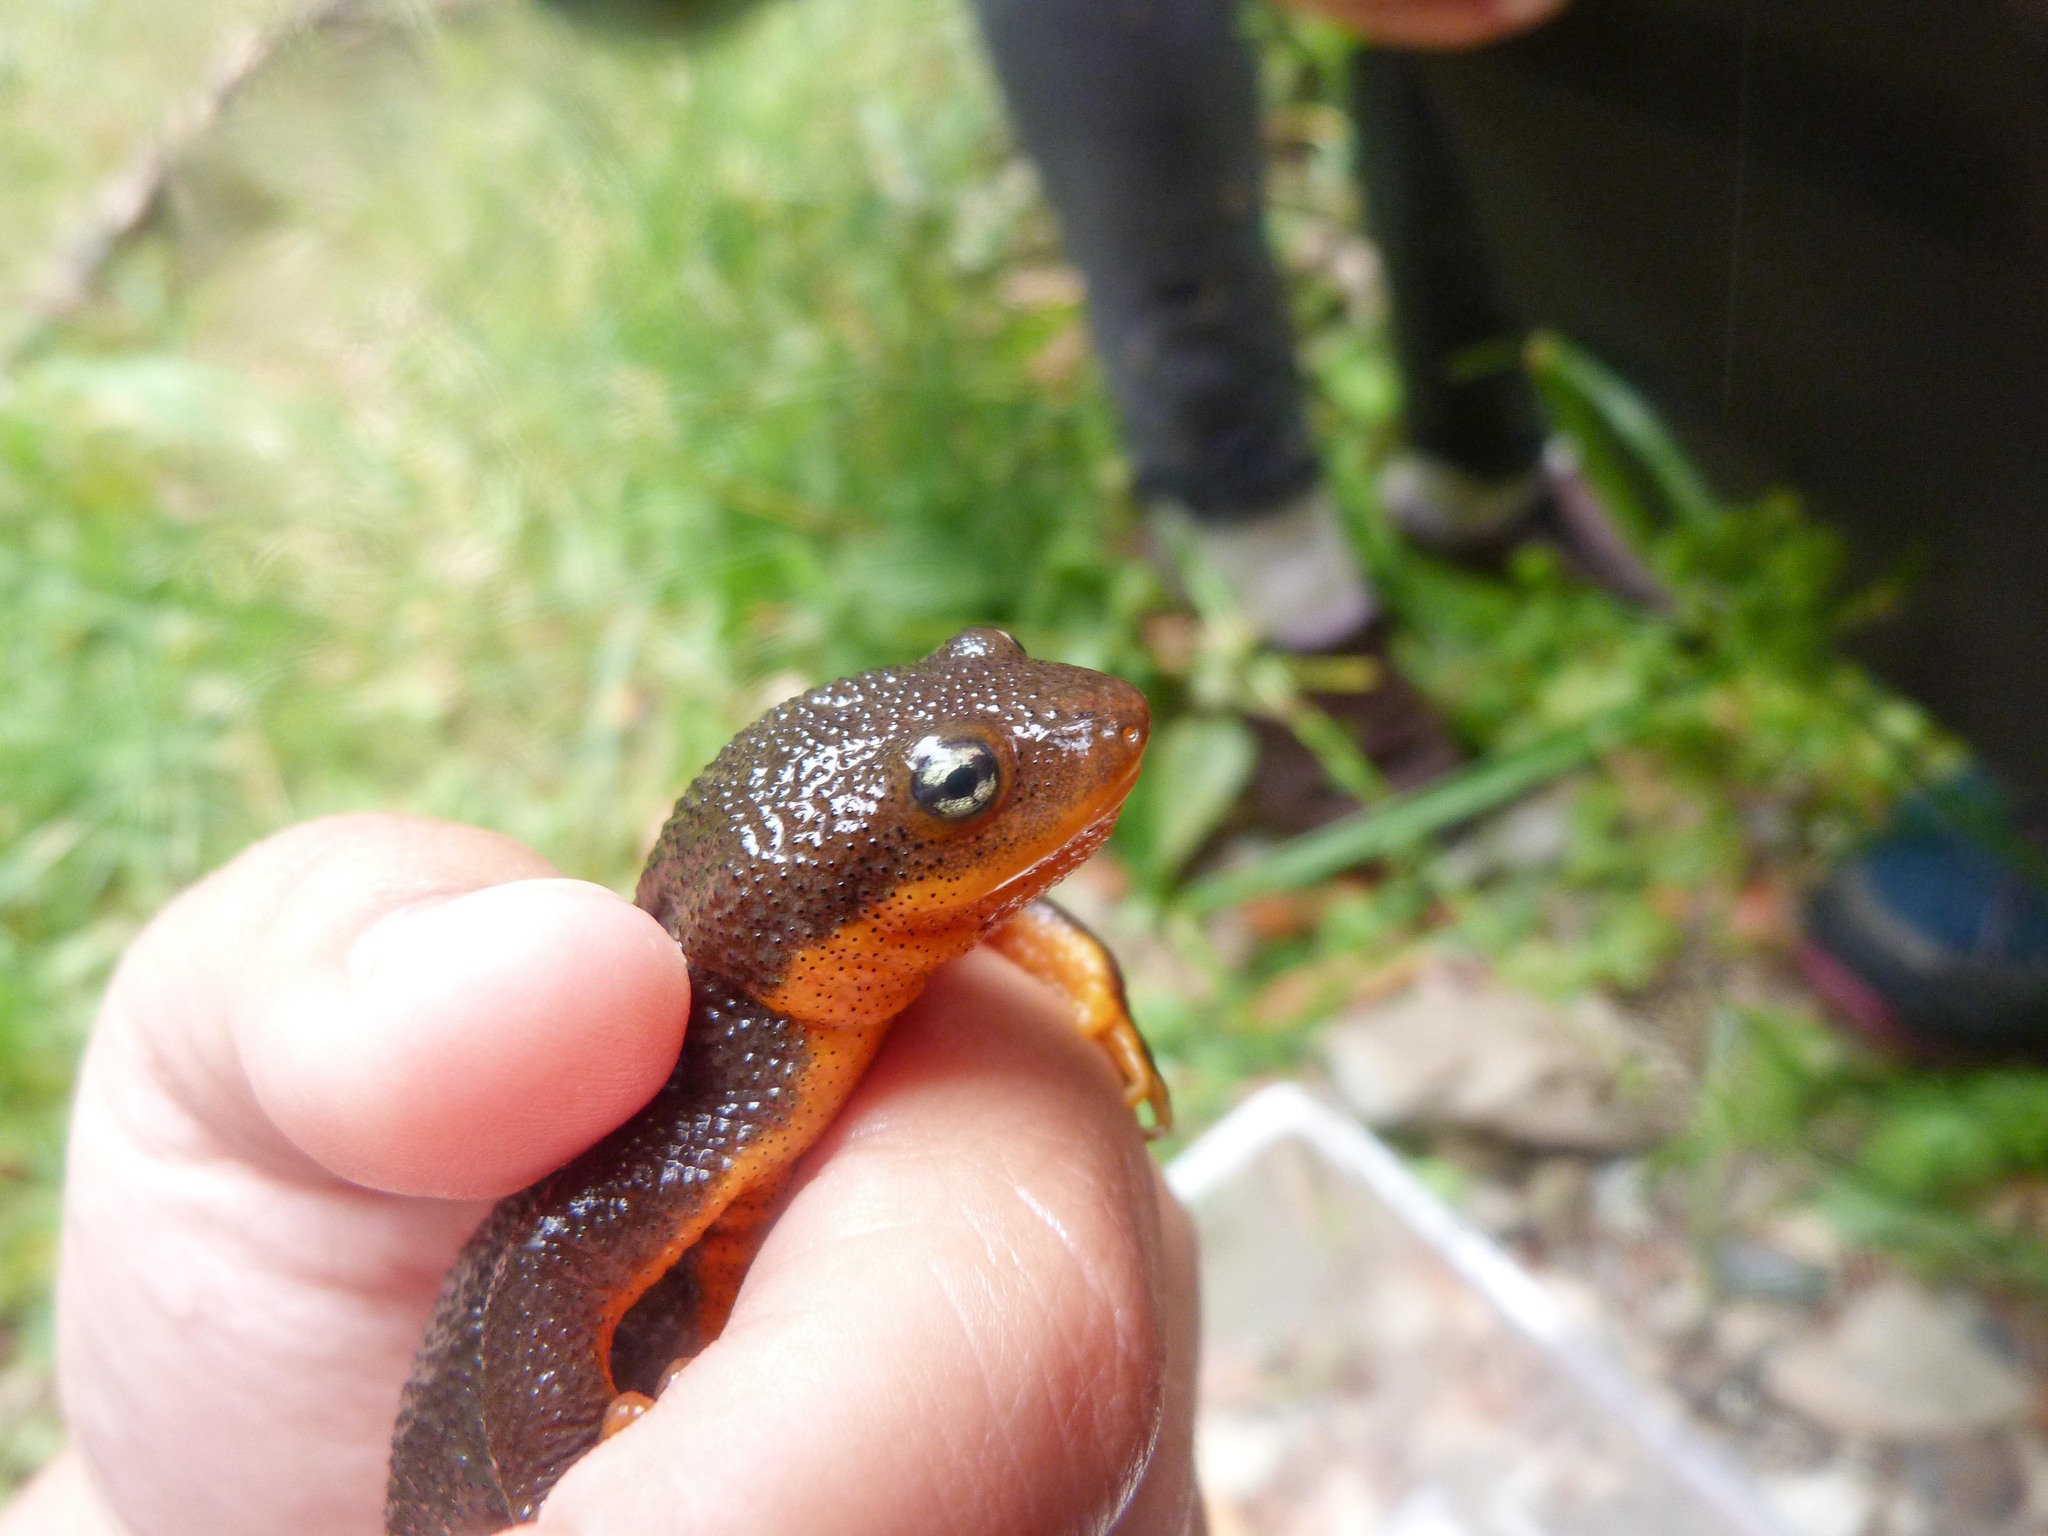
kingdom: Animalia
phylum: Chordata
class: Amphibia
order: Caudata
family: Salamandridae
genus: Taricha
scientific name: Taricha granulosa
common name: Roughskin newt
